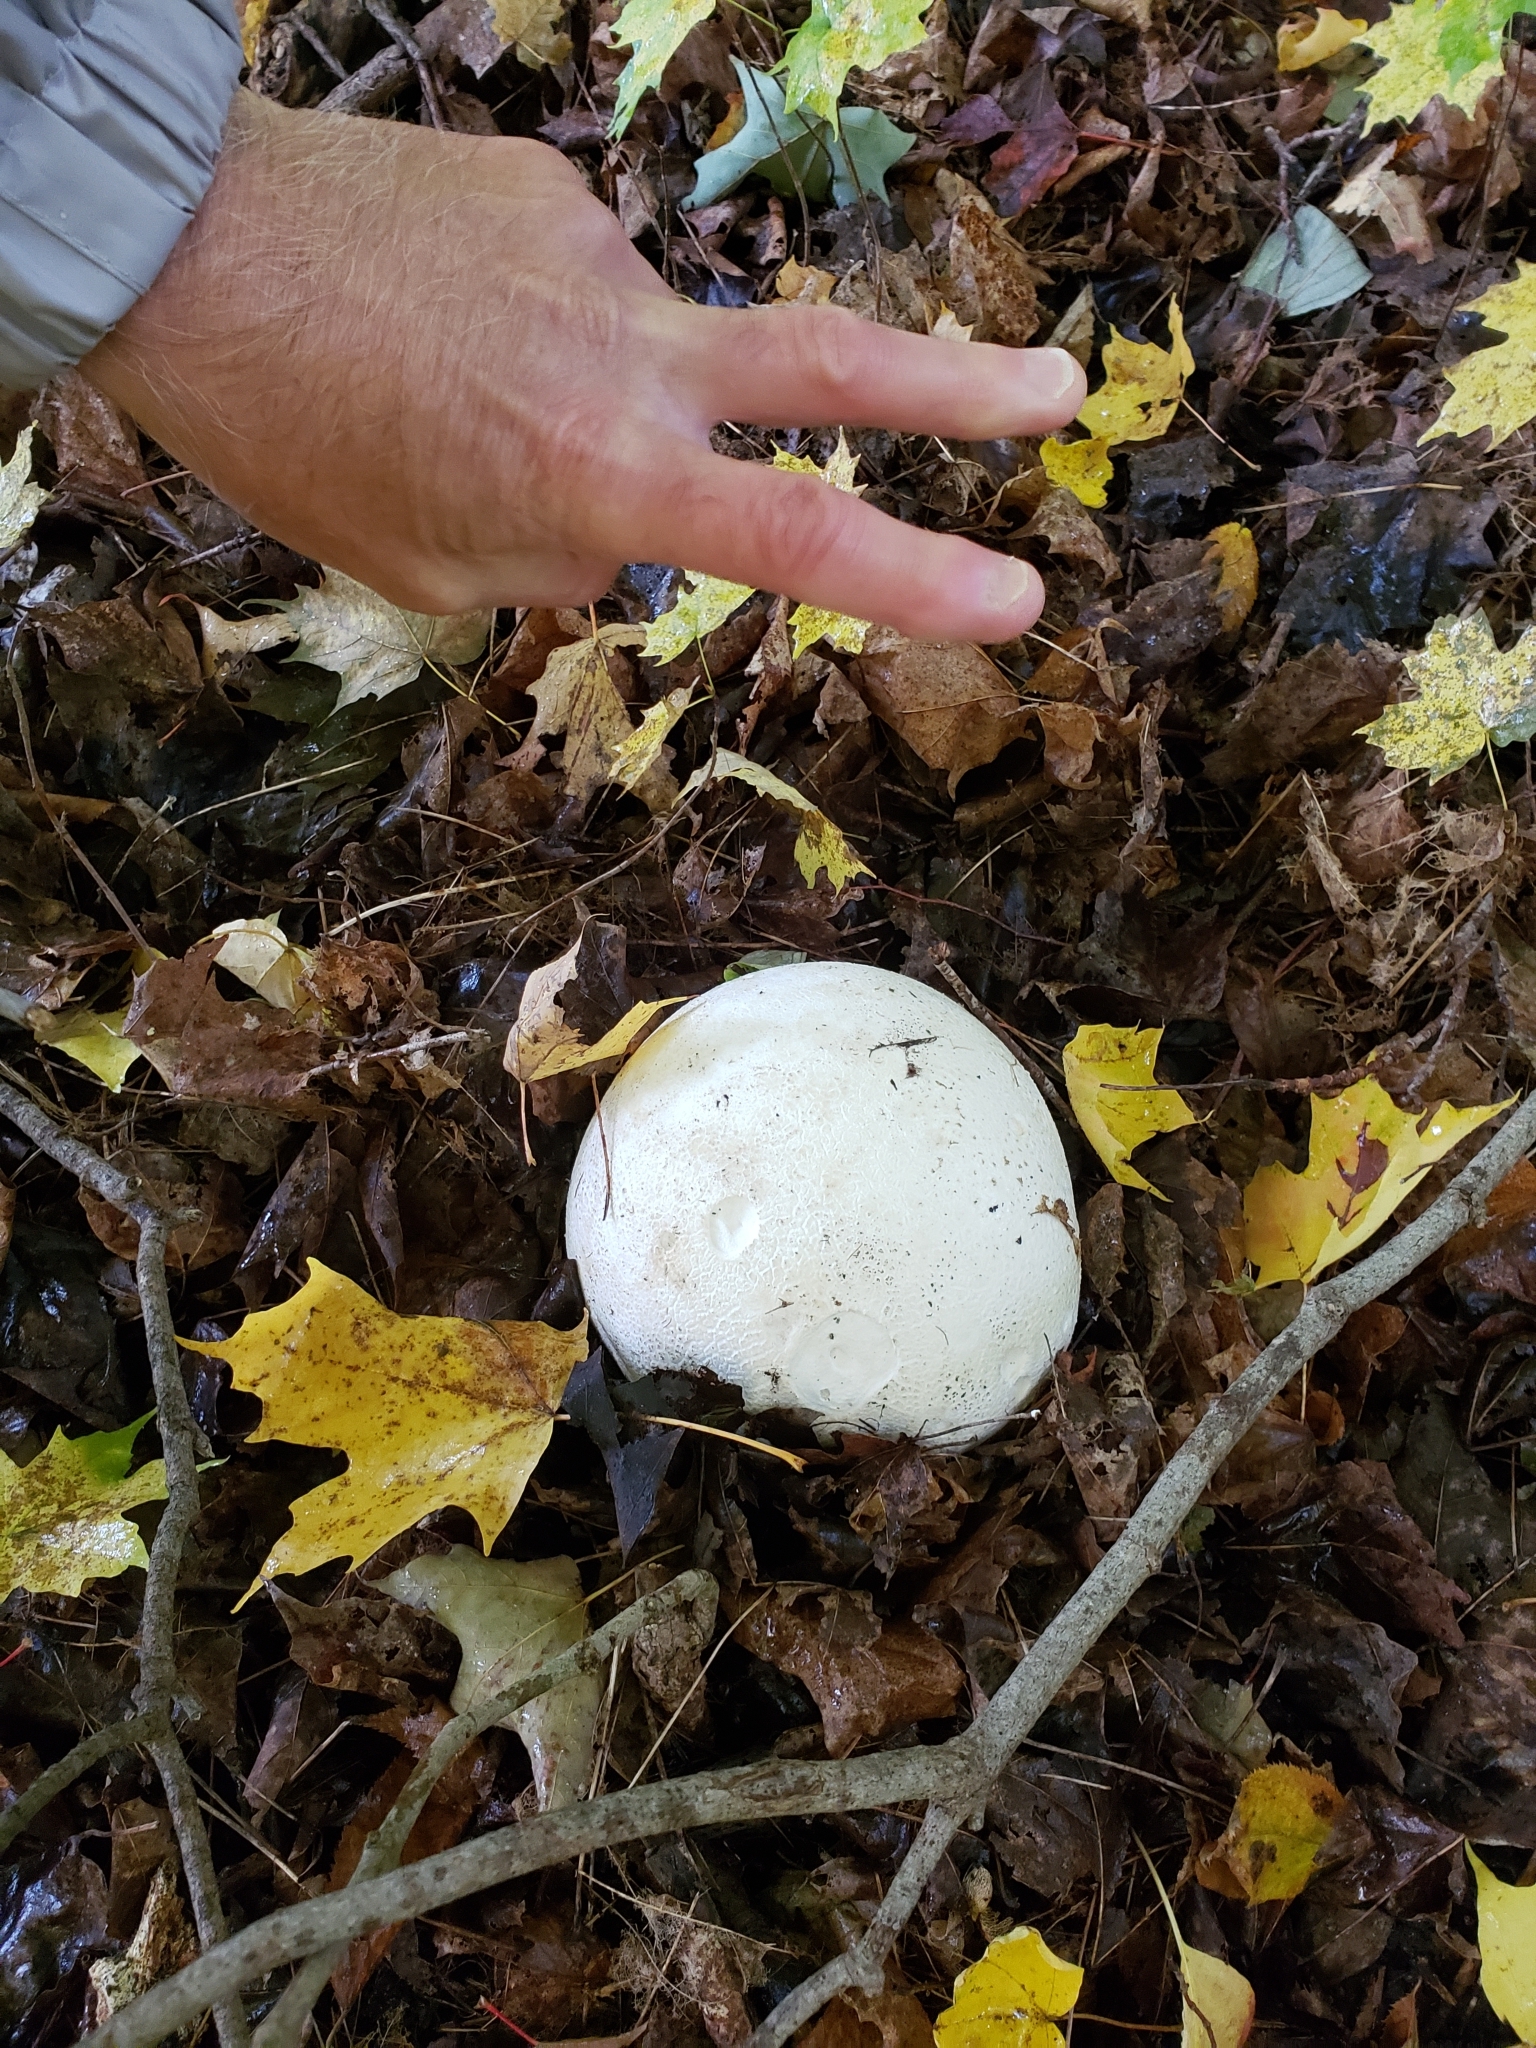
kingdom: Fungi
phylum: Basidiomycota
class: Agaricomycetes
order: Agaricales
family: Lycoperdaceae
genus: Calvatia
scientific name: Calvatia gigantea
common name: Giant puffball
